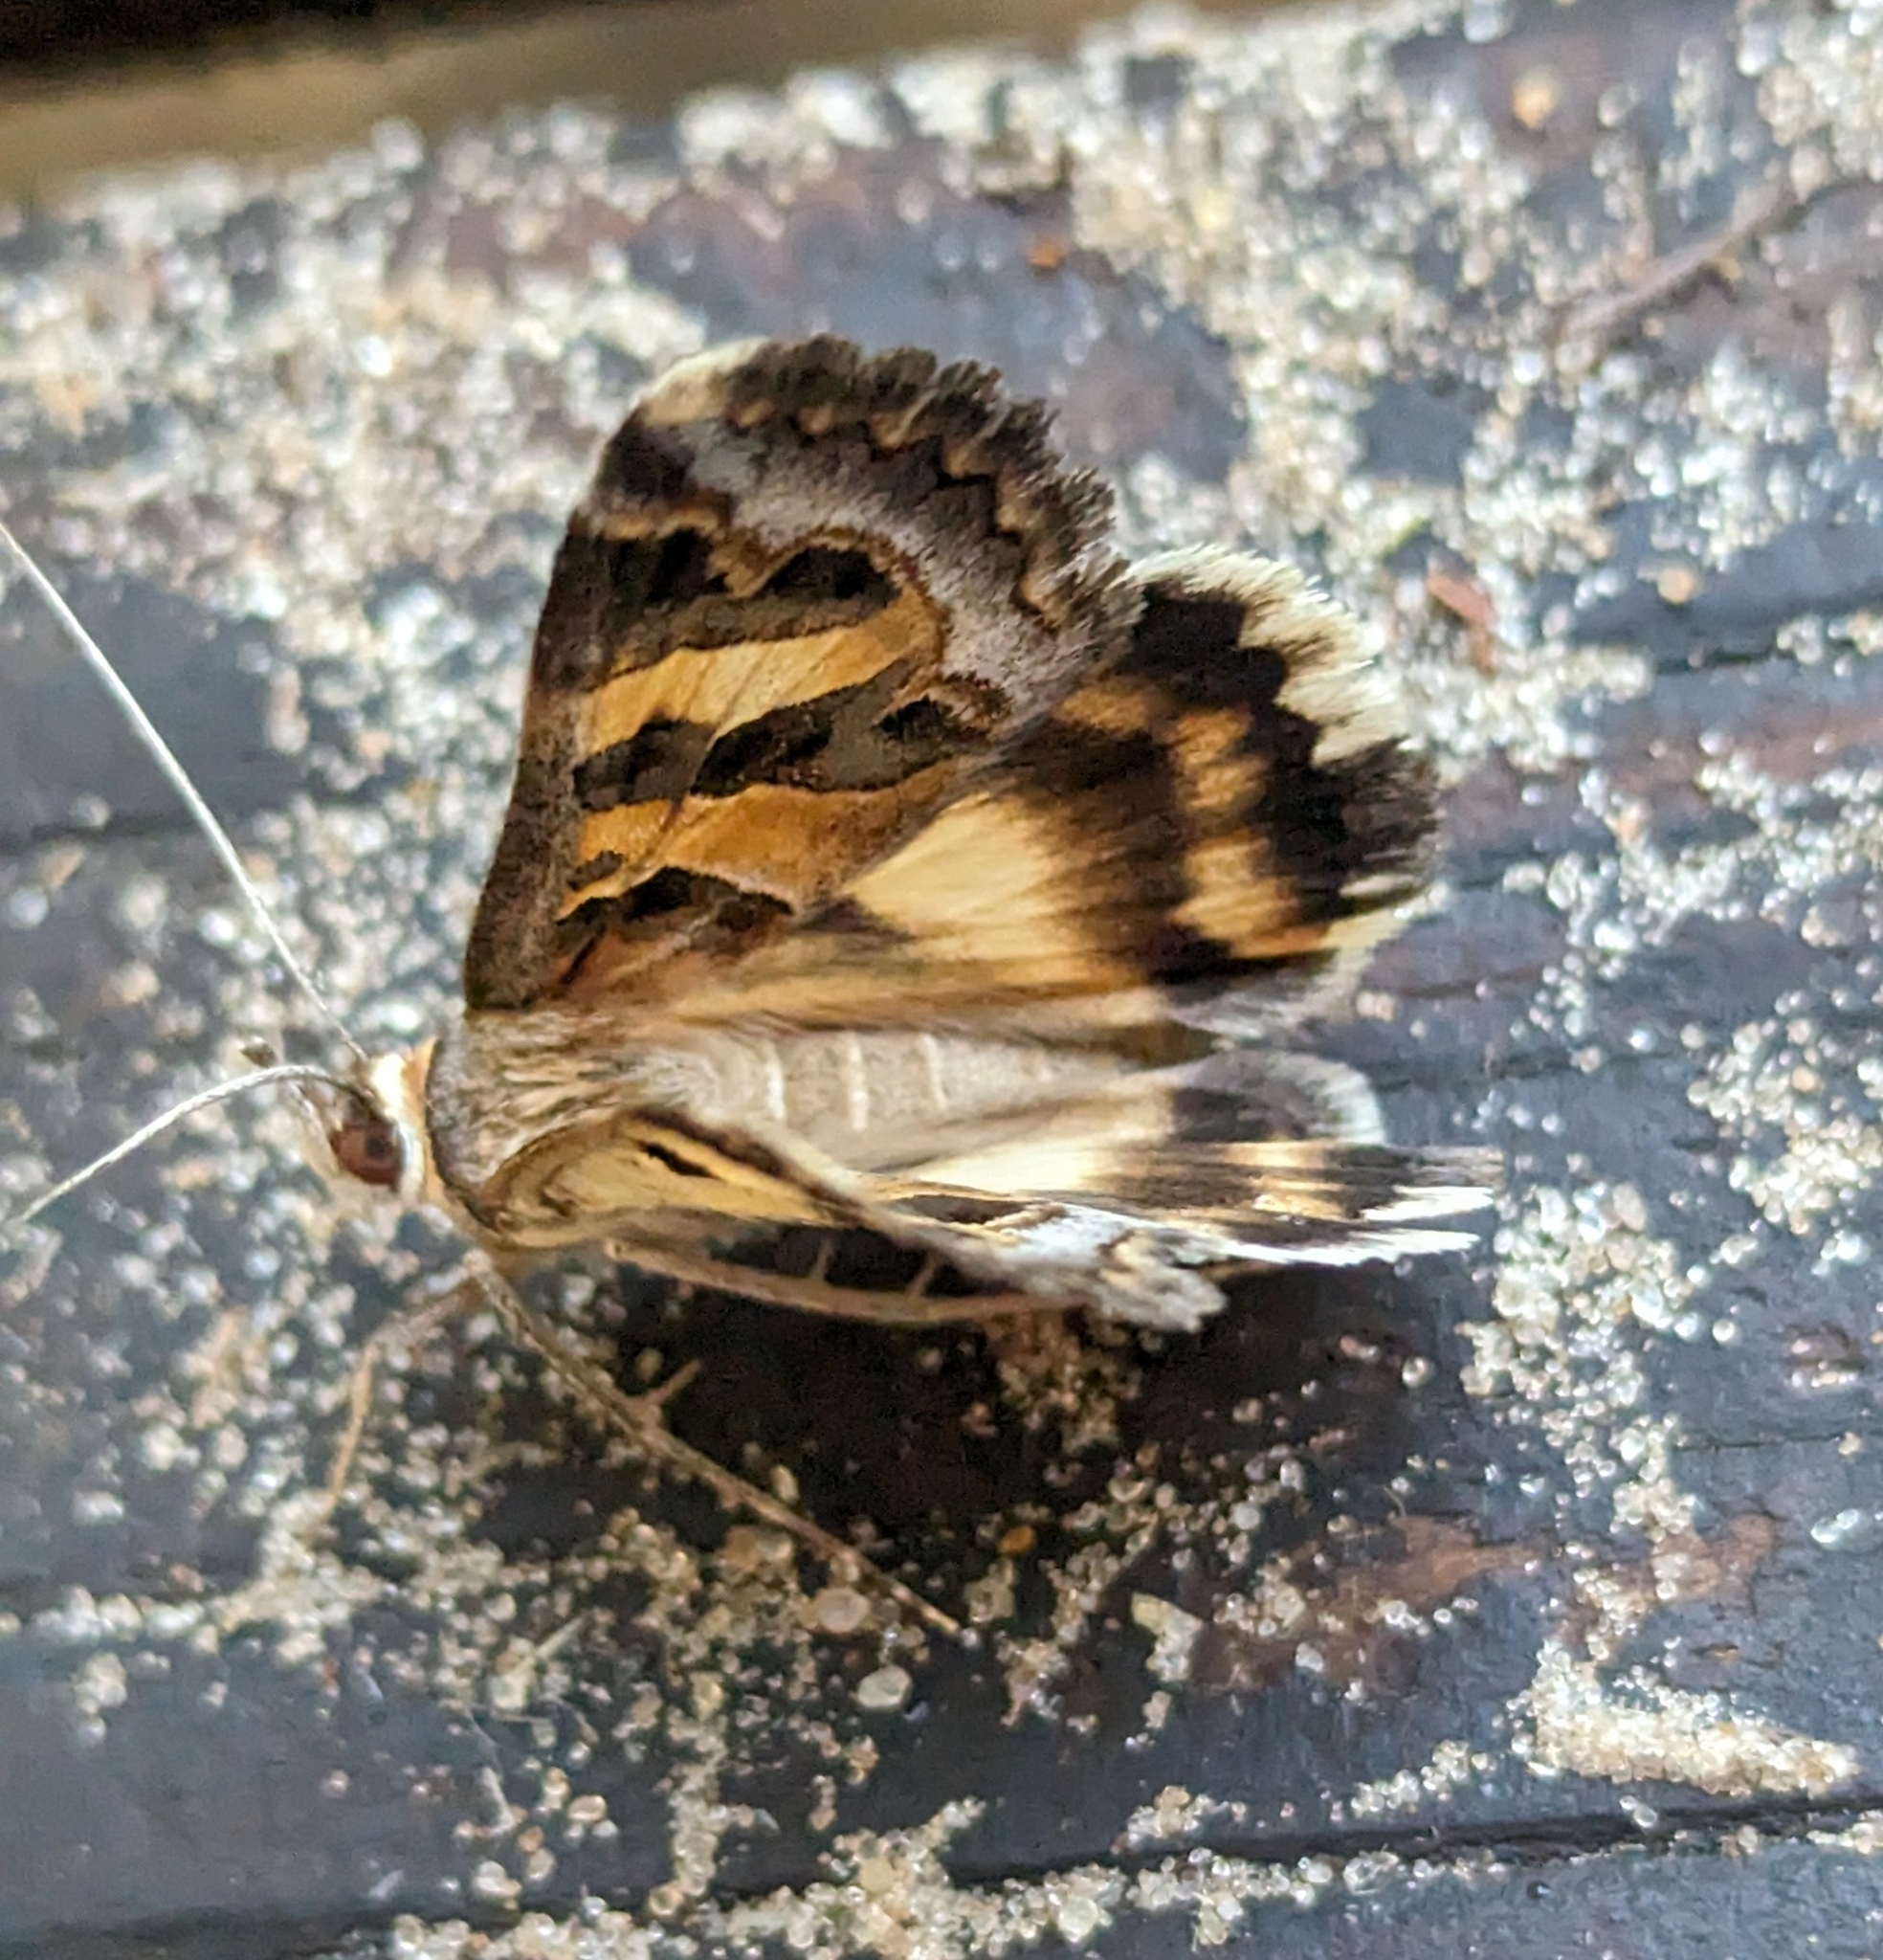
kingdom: Animalia
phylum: Arthropoda
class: Insecta
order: Lepidoptera
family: Erebidae
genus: Cerocala
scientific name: Cerocala vermiculosa
